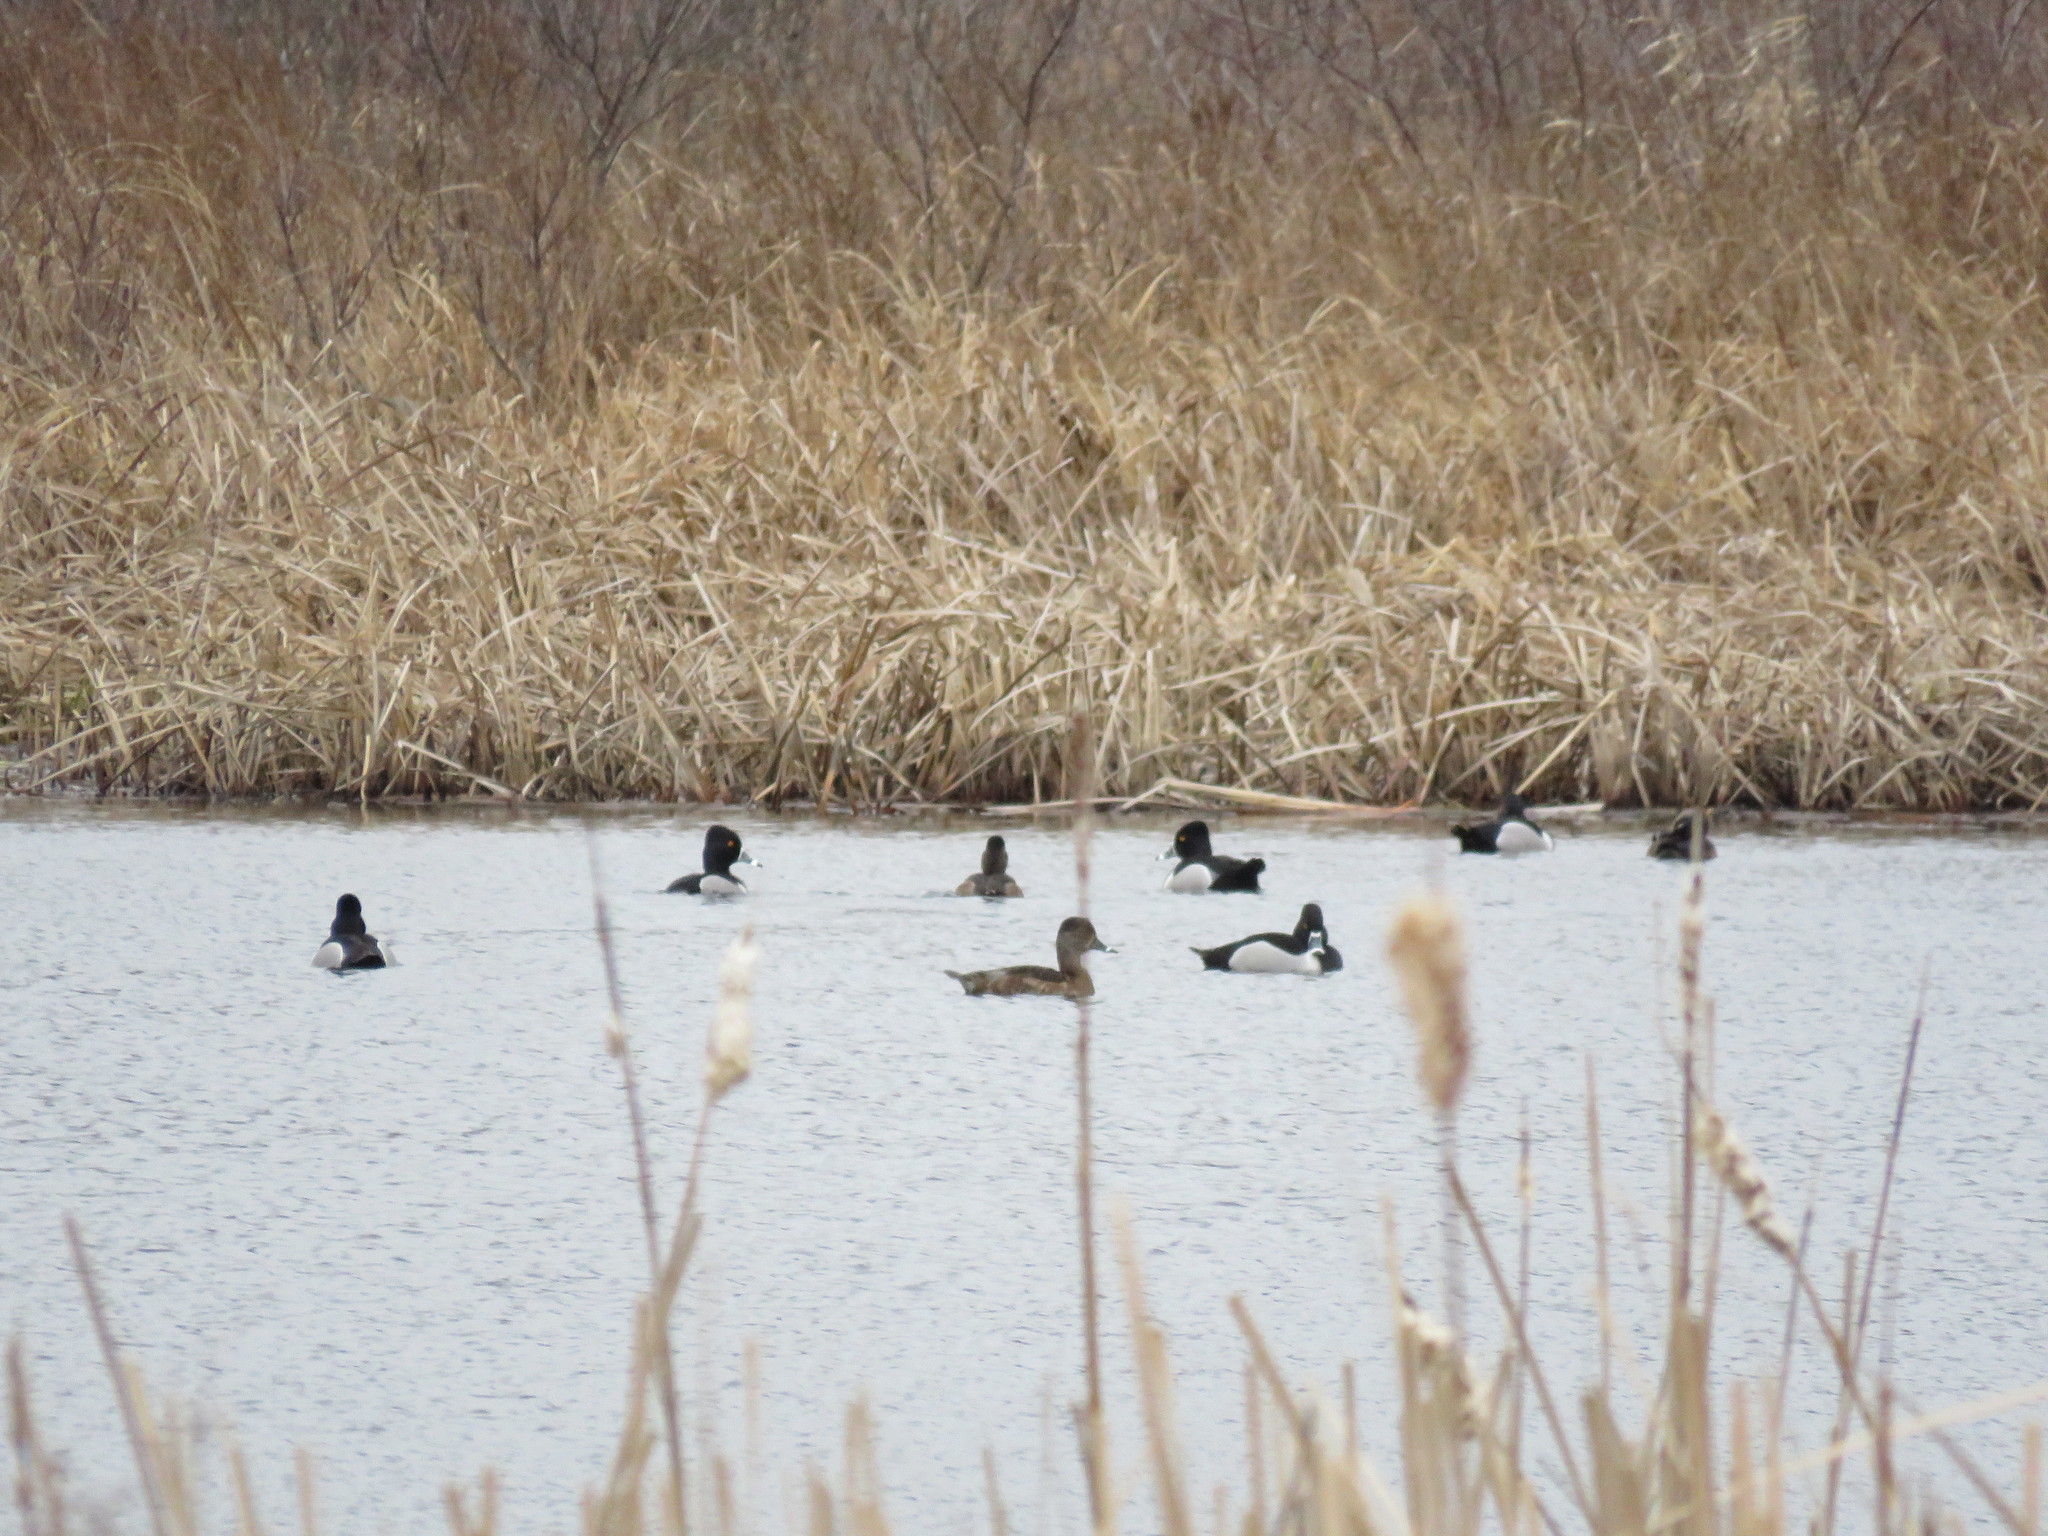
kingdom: Animalia
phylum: Chordata
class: Aves
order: Anseriformes
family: Anatidae
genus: Aythya
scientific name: Aythya collaris
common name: Ring-necked duck
